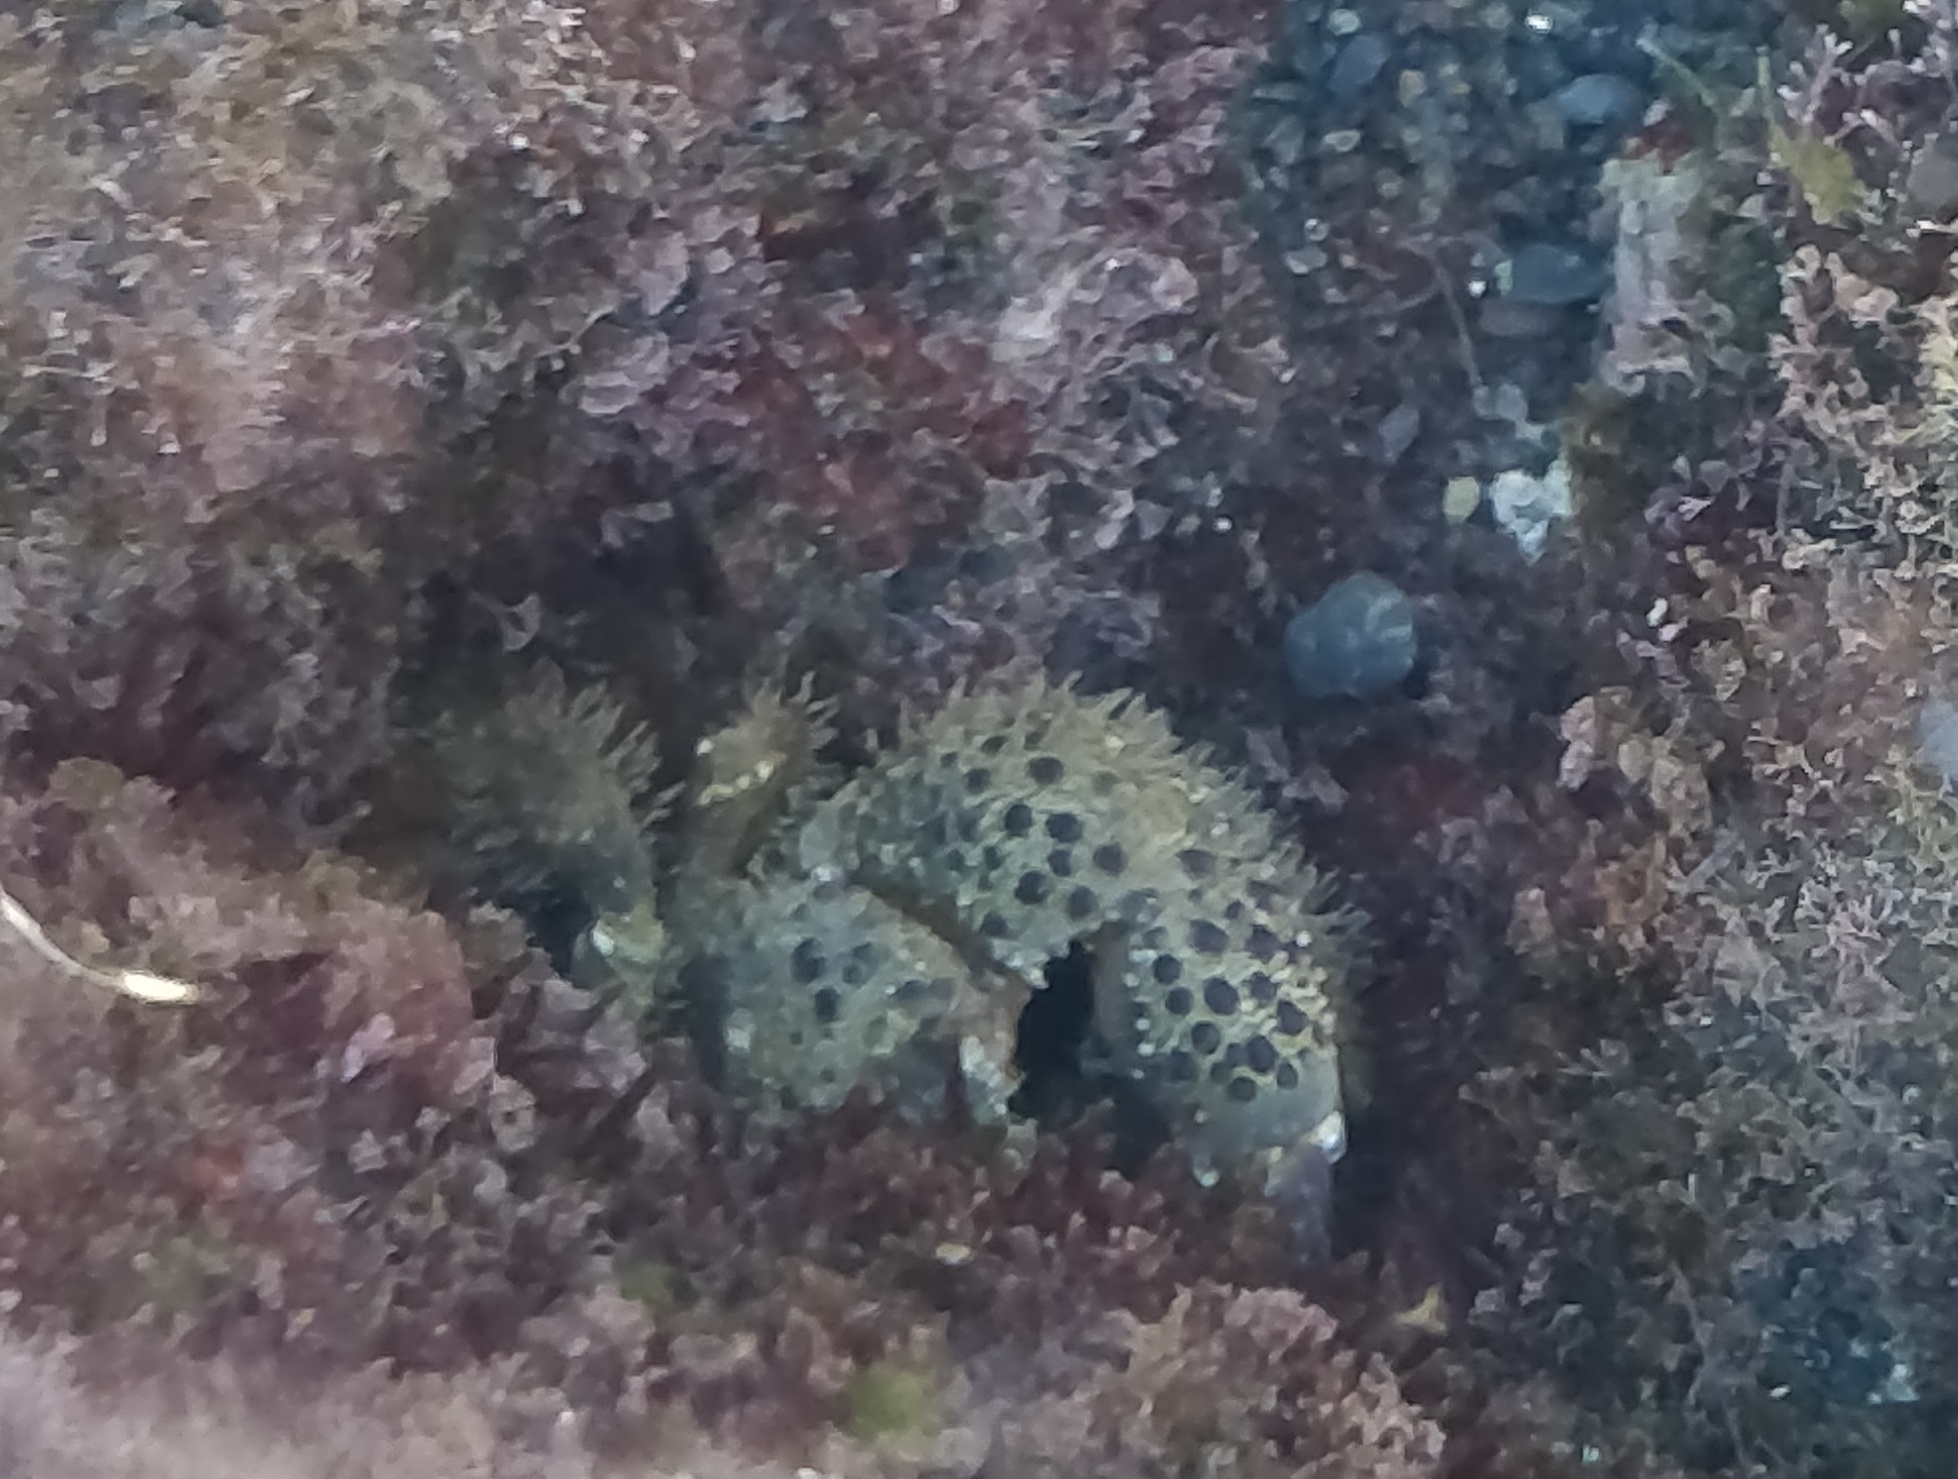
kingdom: Animalia
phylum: Arthropoda
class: Malacostraca
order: Decapoda
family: Eriphiidae
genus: Eriphia
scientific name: Eriphia verrucosa
